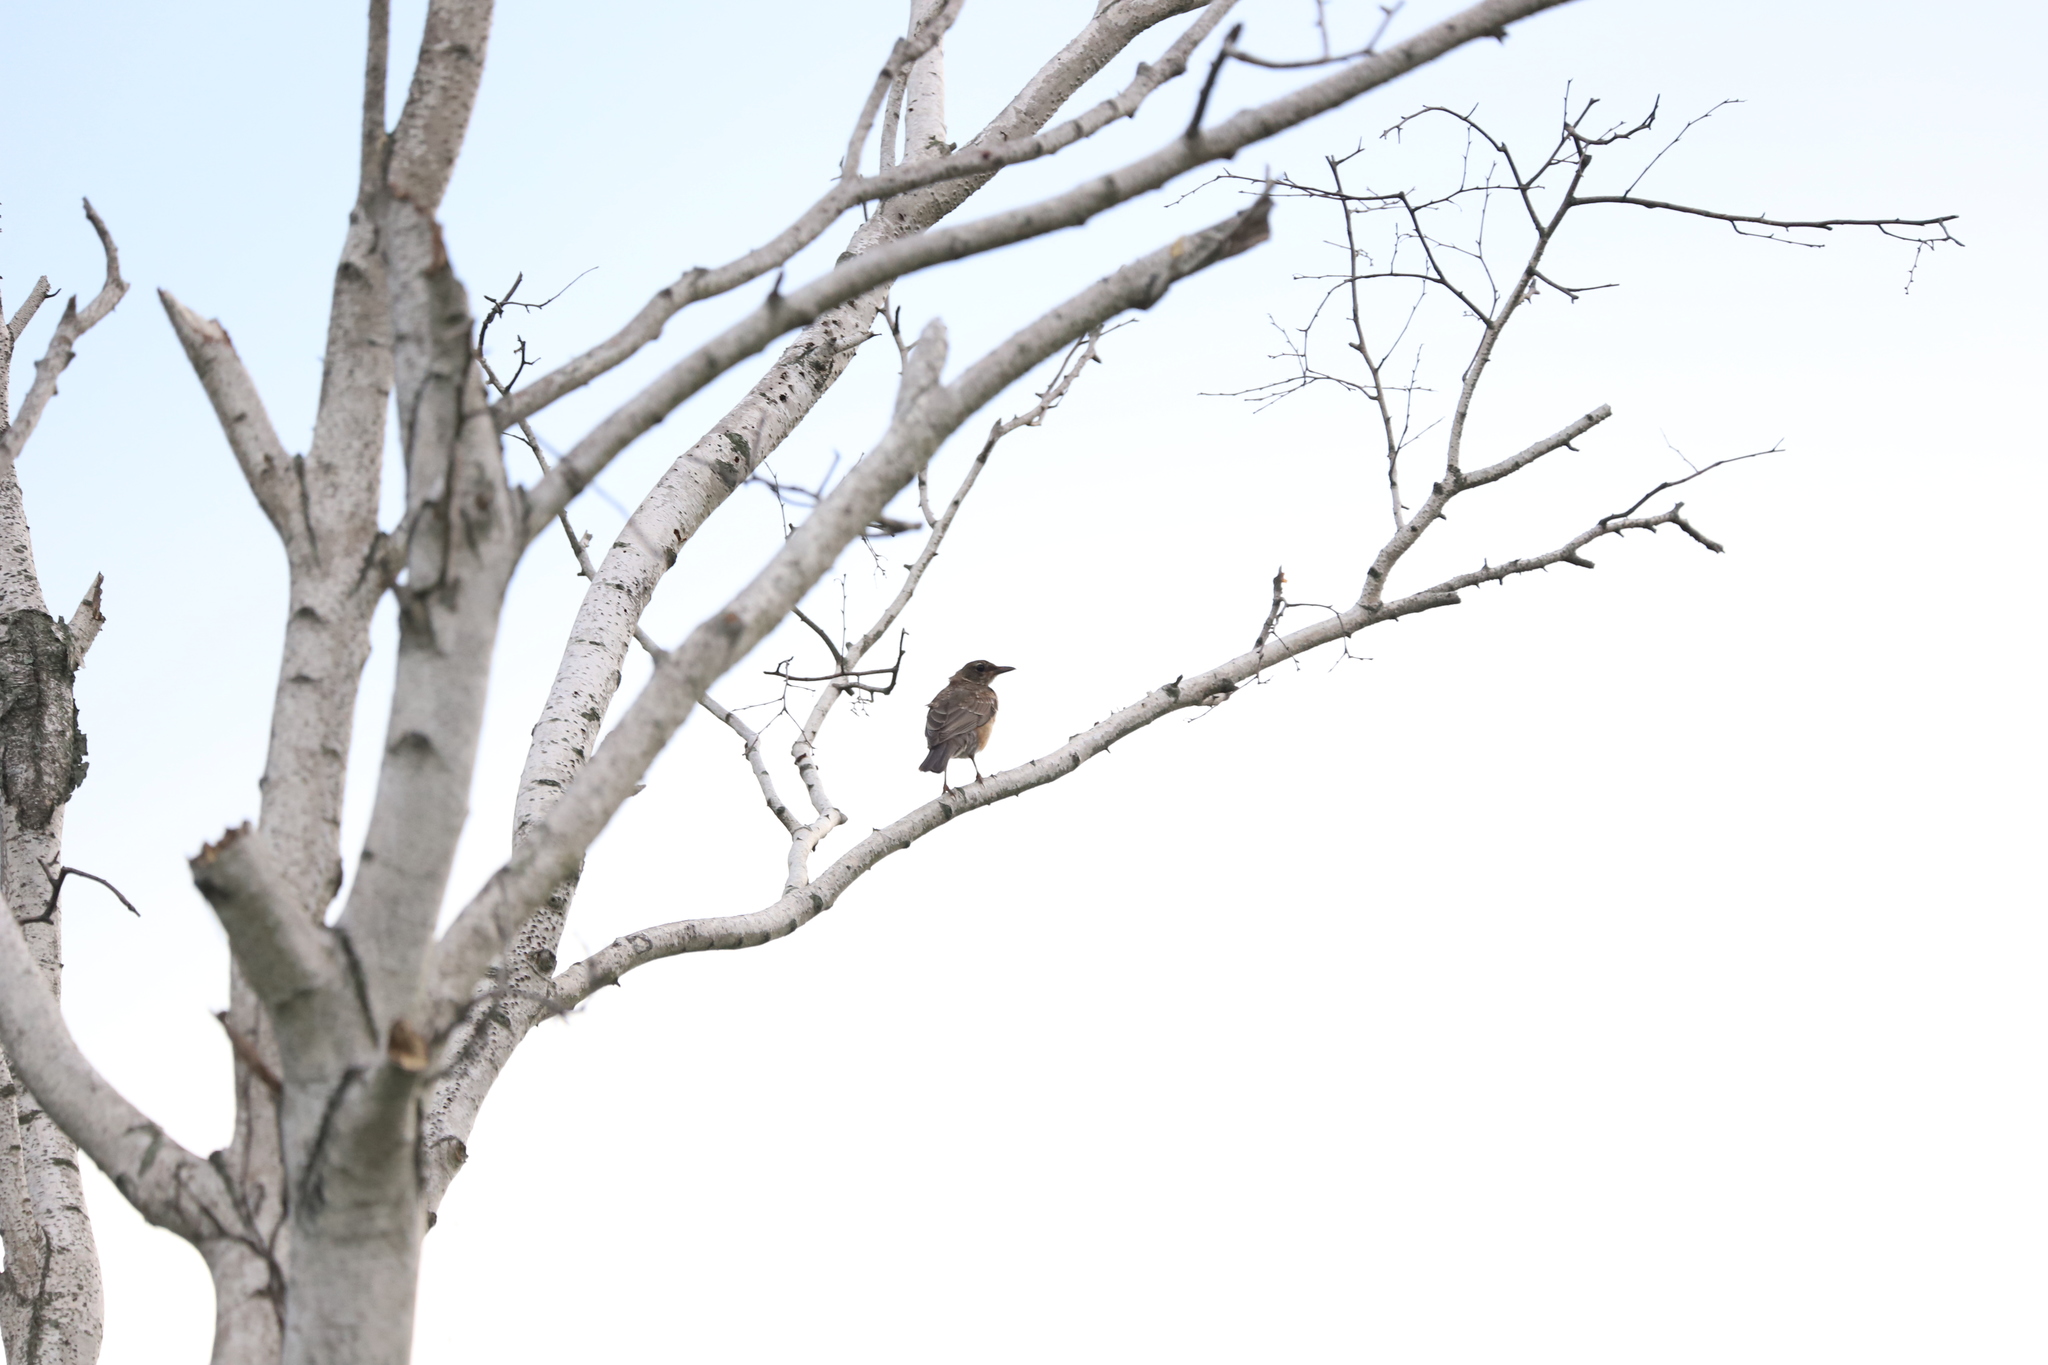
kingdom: Animalia
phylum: Chordata
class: Aves
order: Passeriformes
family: Turdidae
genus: Turdus
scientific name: Turdus migratorius
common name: American robin
